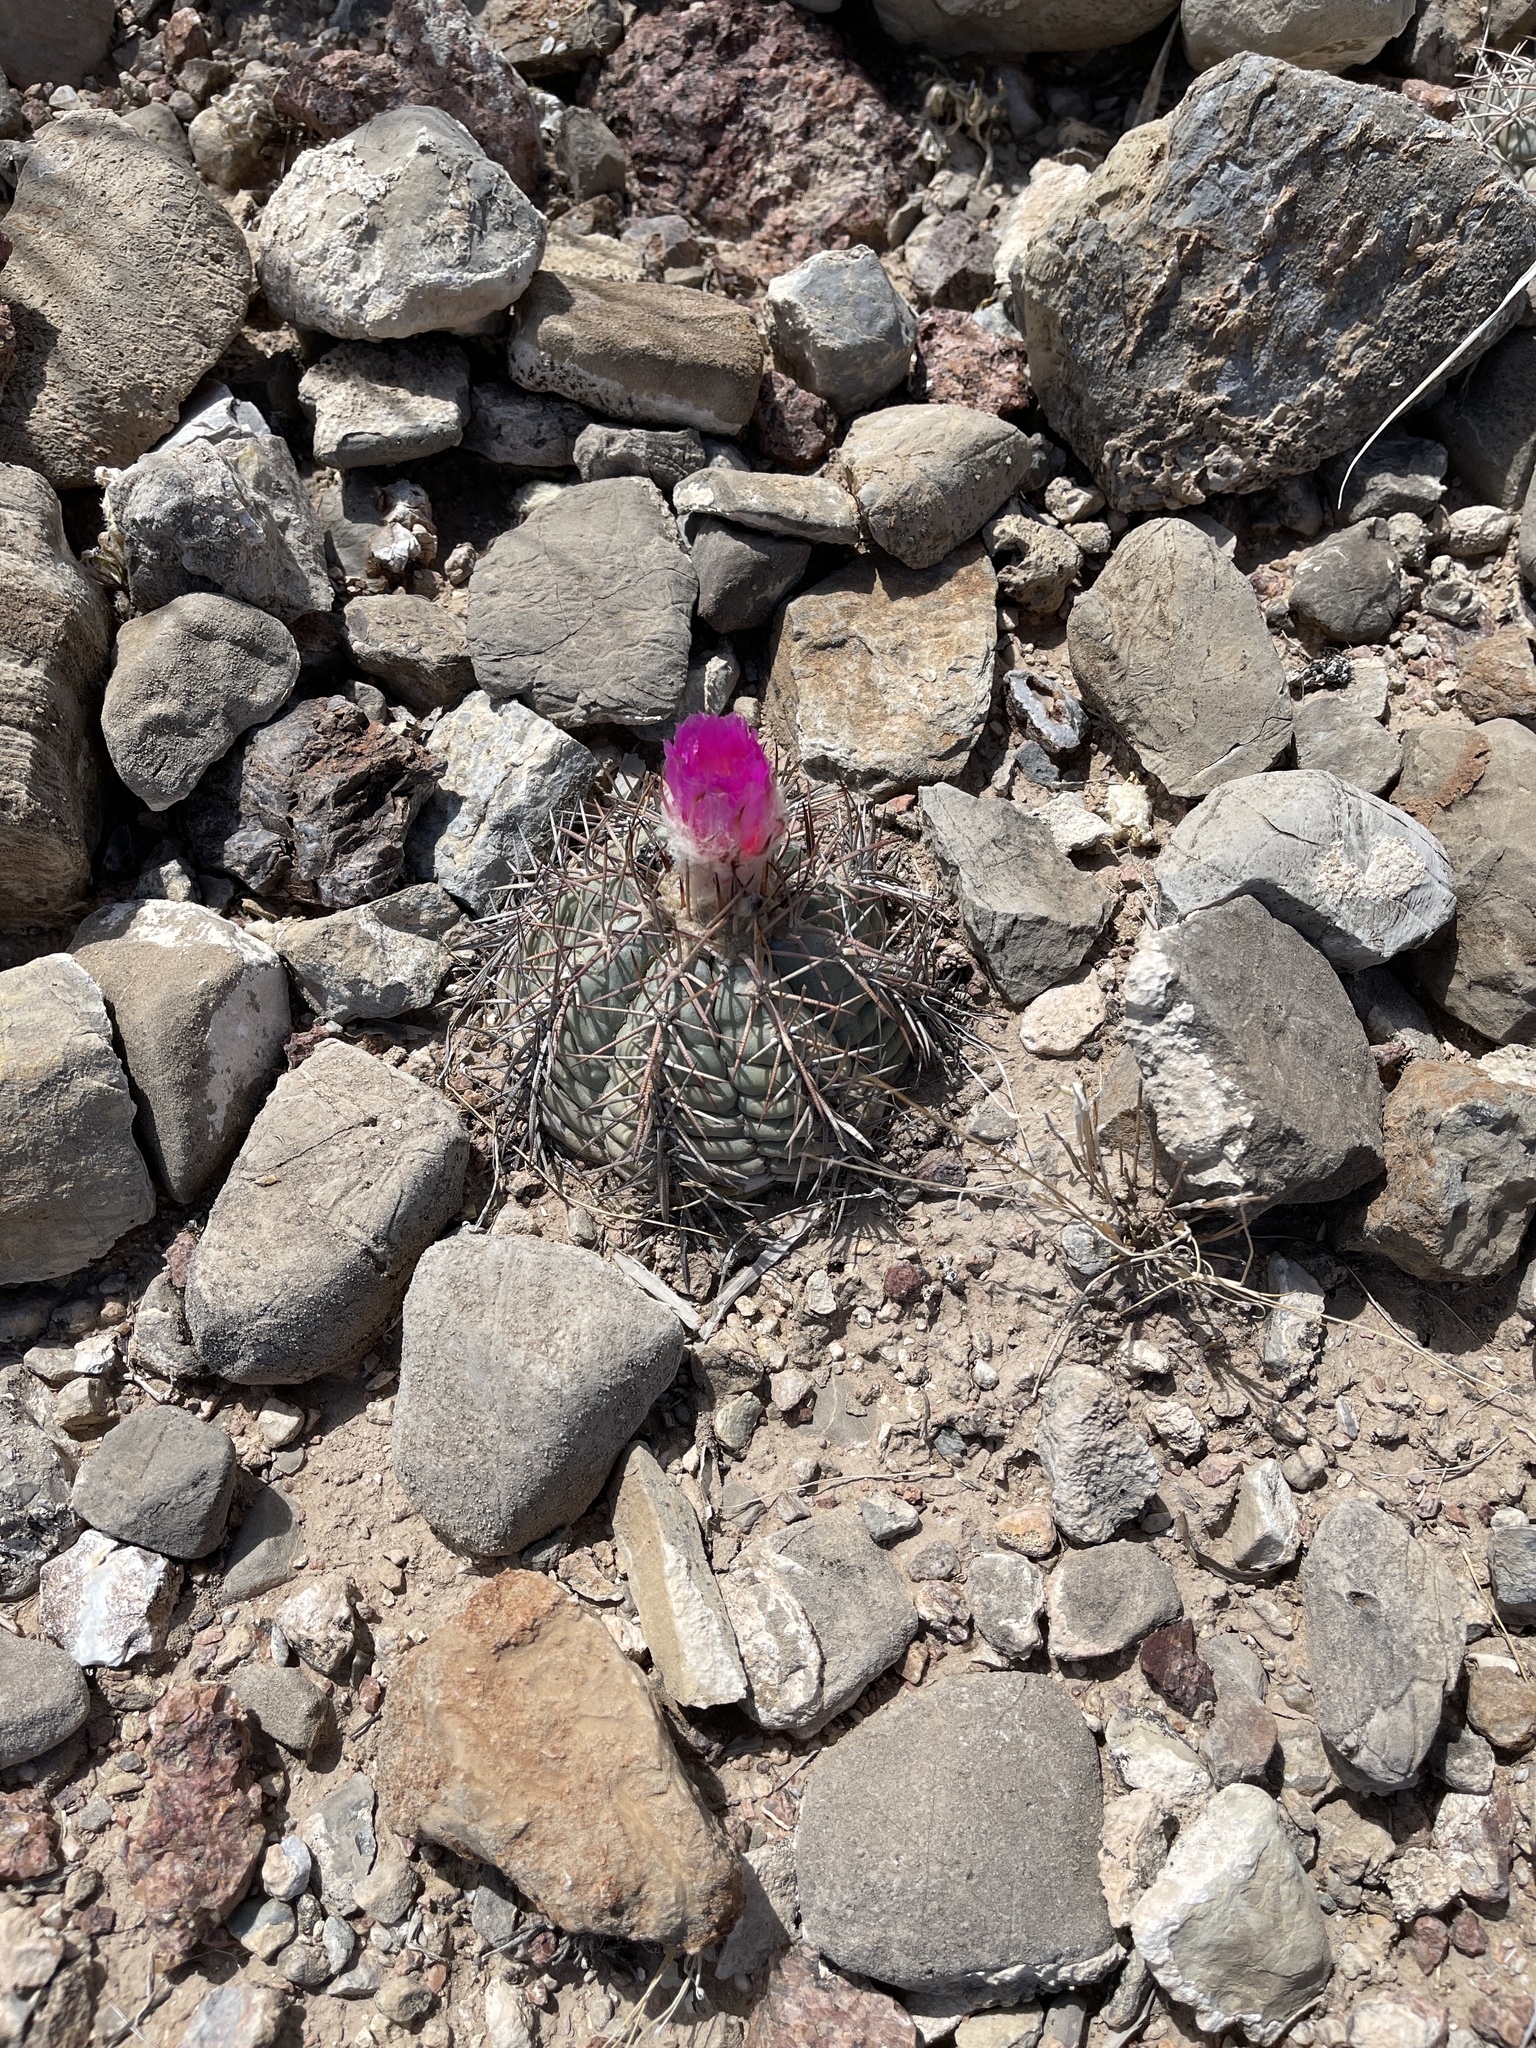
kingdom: Plantae
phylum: Tracheophyta
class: Magnoliopsida
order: Caryophyllales
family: Cactaceae
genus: Echinocactus
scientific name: Echinocactus horizonthalonius
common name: Devilshead
